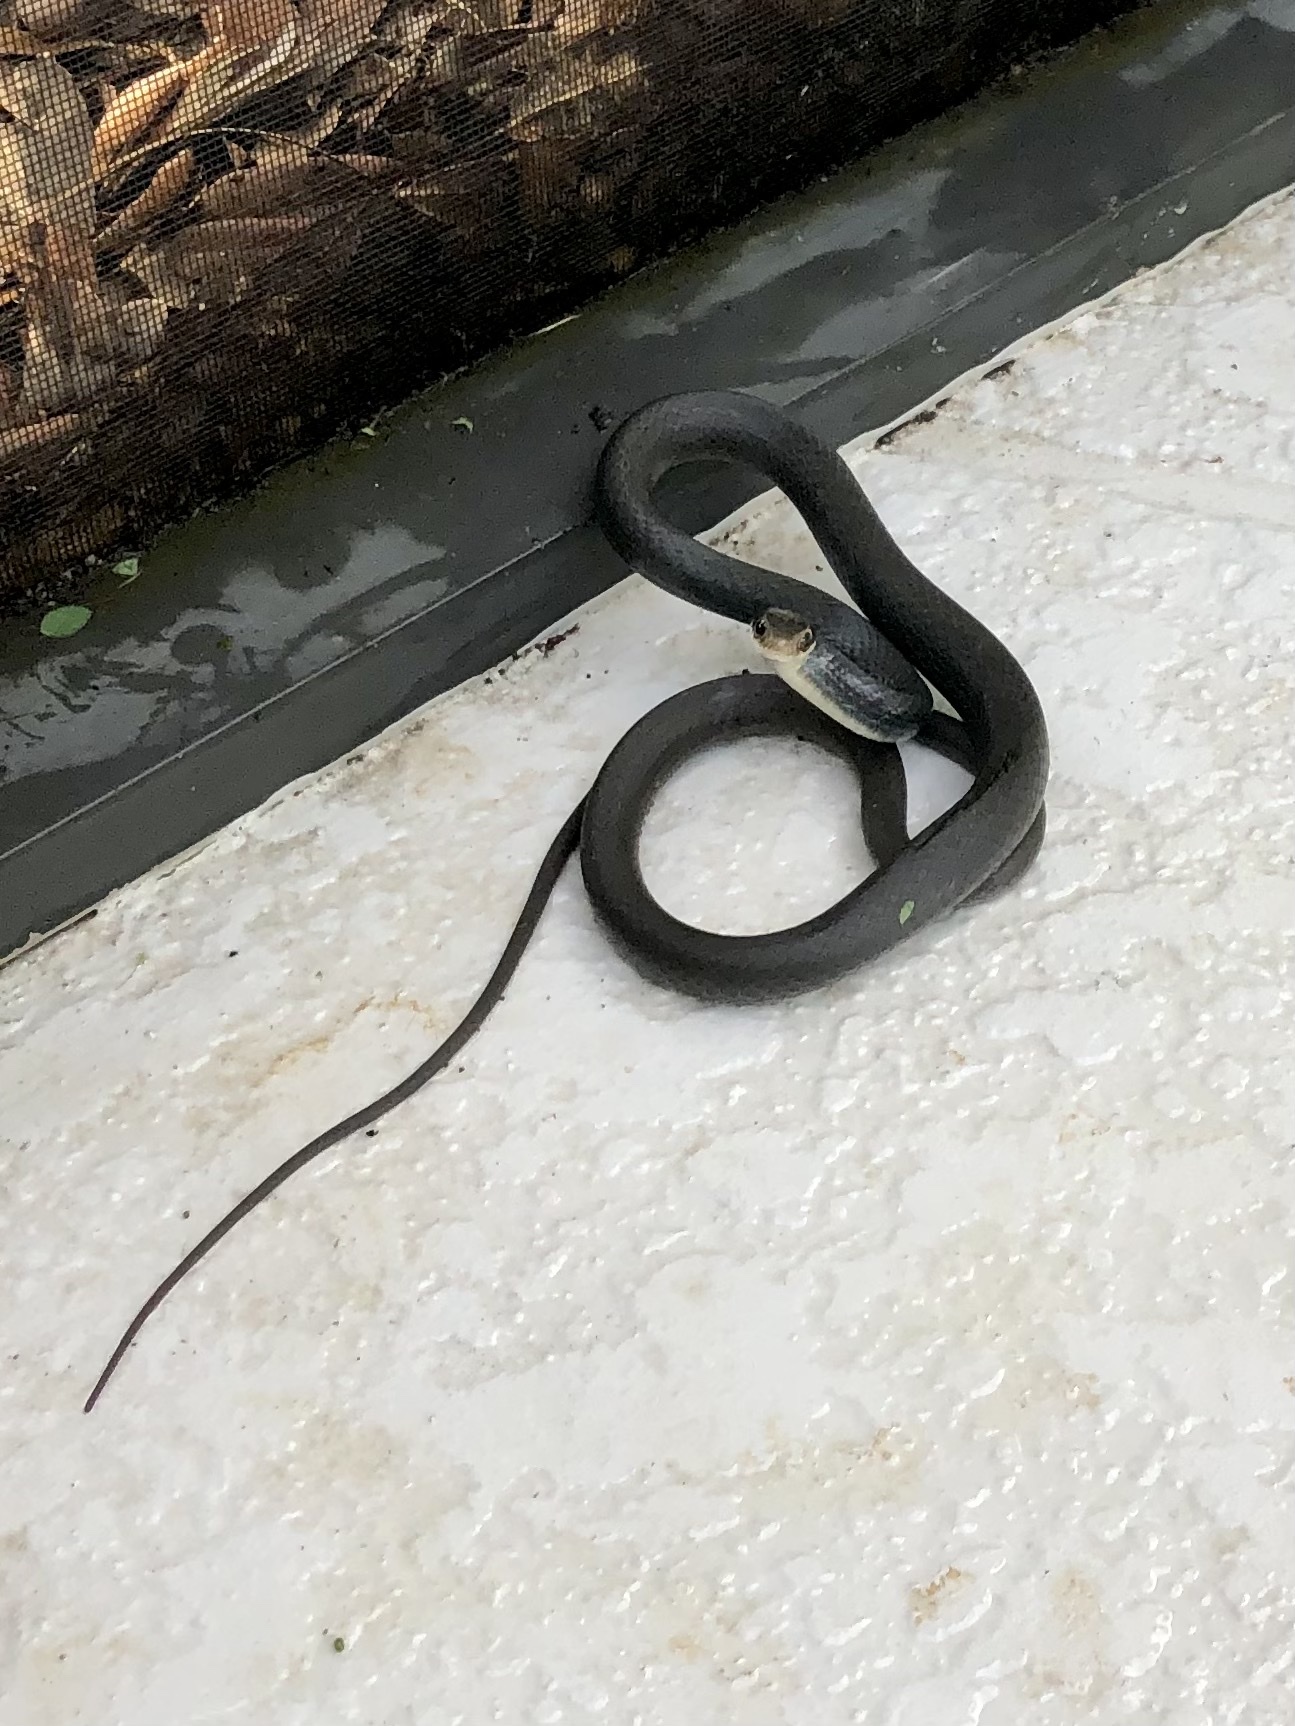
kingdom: Animalia
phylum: Chordata
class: Squamata
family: Colubridae
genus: Coluber
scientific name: Coluber constrictor
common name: Eastern racer
